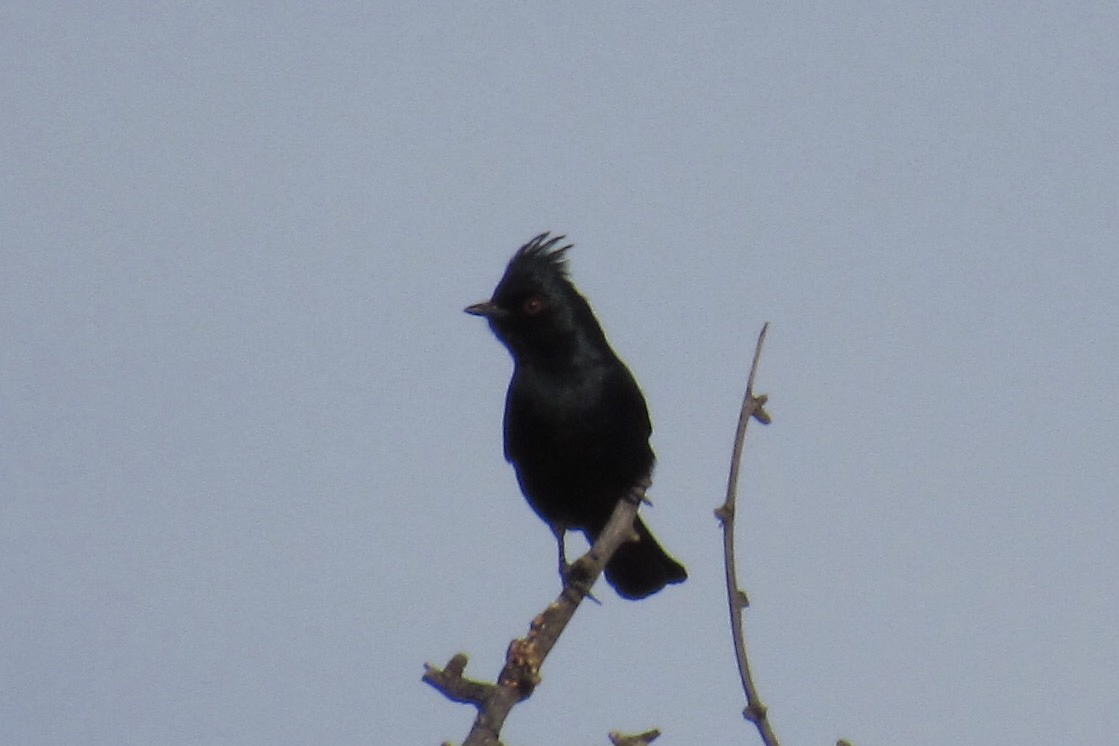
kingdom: Animalia
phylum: Chordata
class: Aves
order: Passeriformes
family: Ptilogonatidae
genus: Phainopepla
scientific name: Phainopepla nitens
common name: Phainopepla
